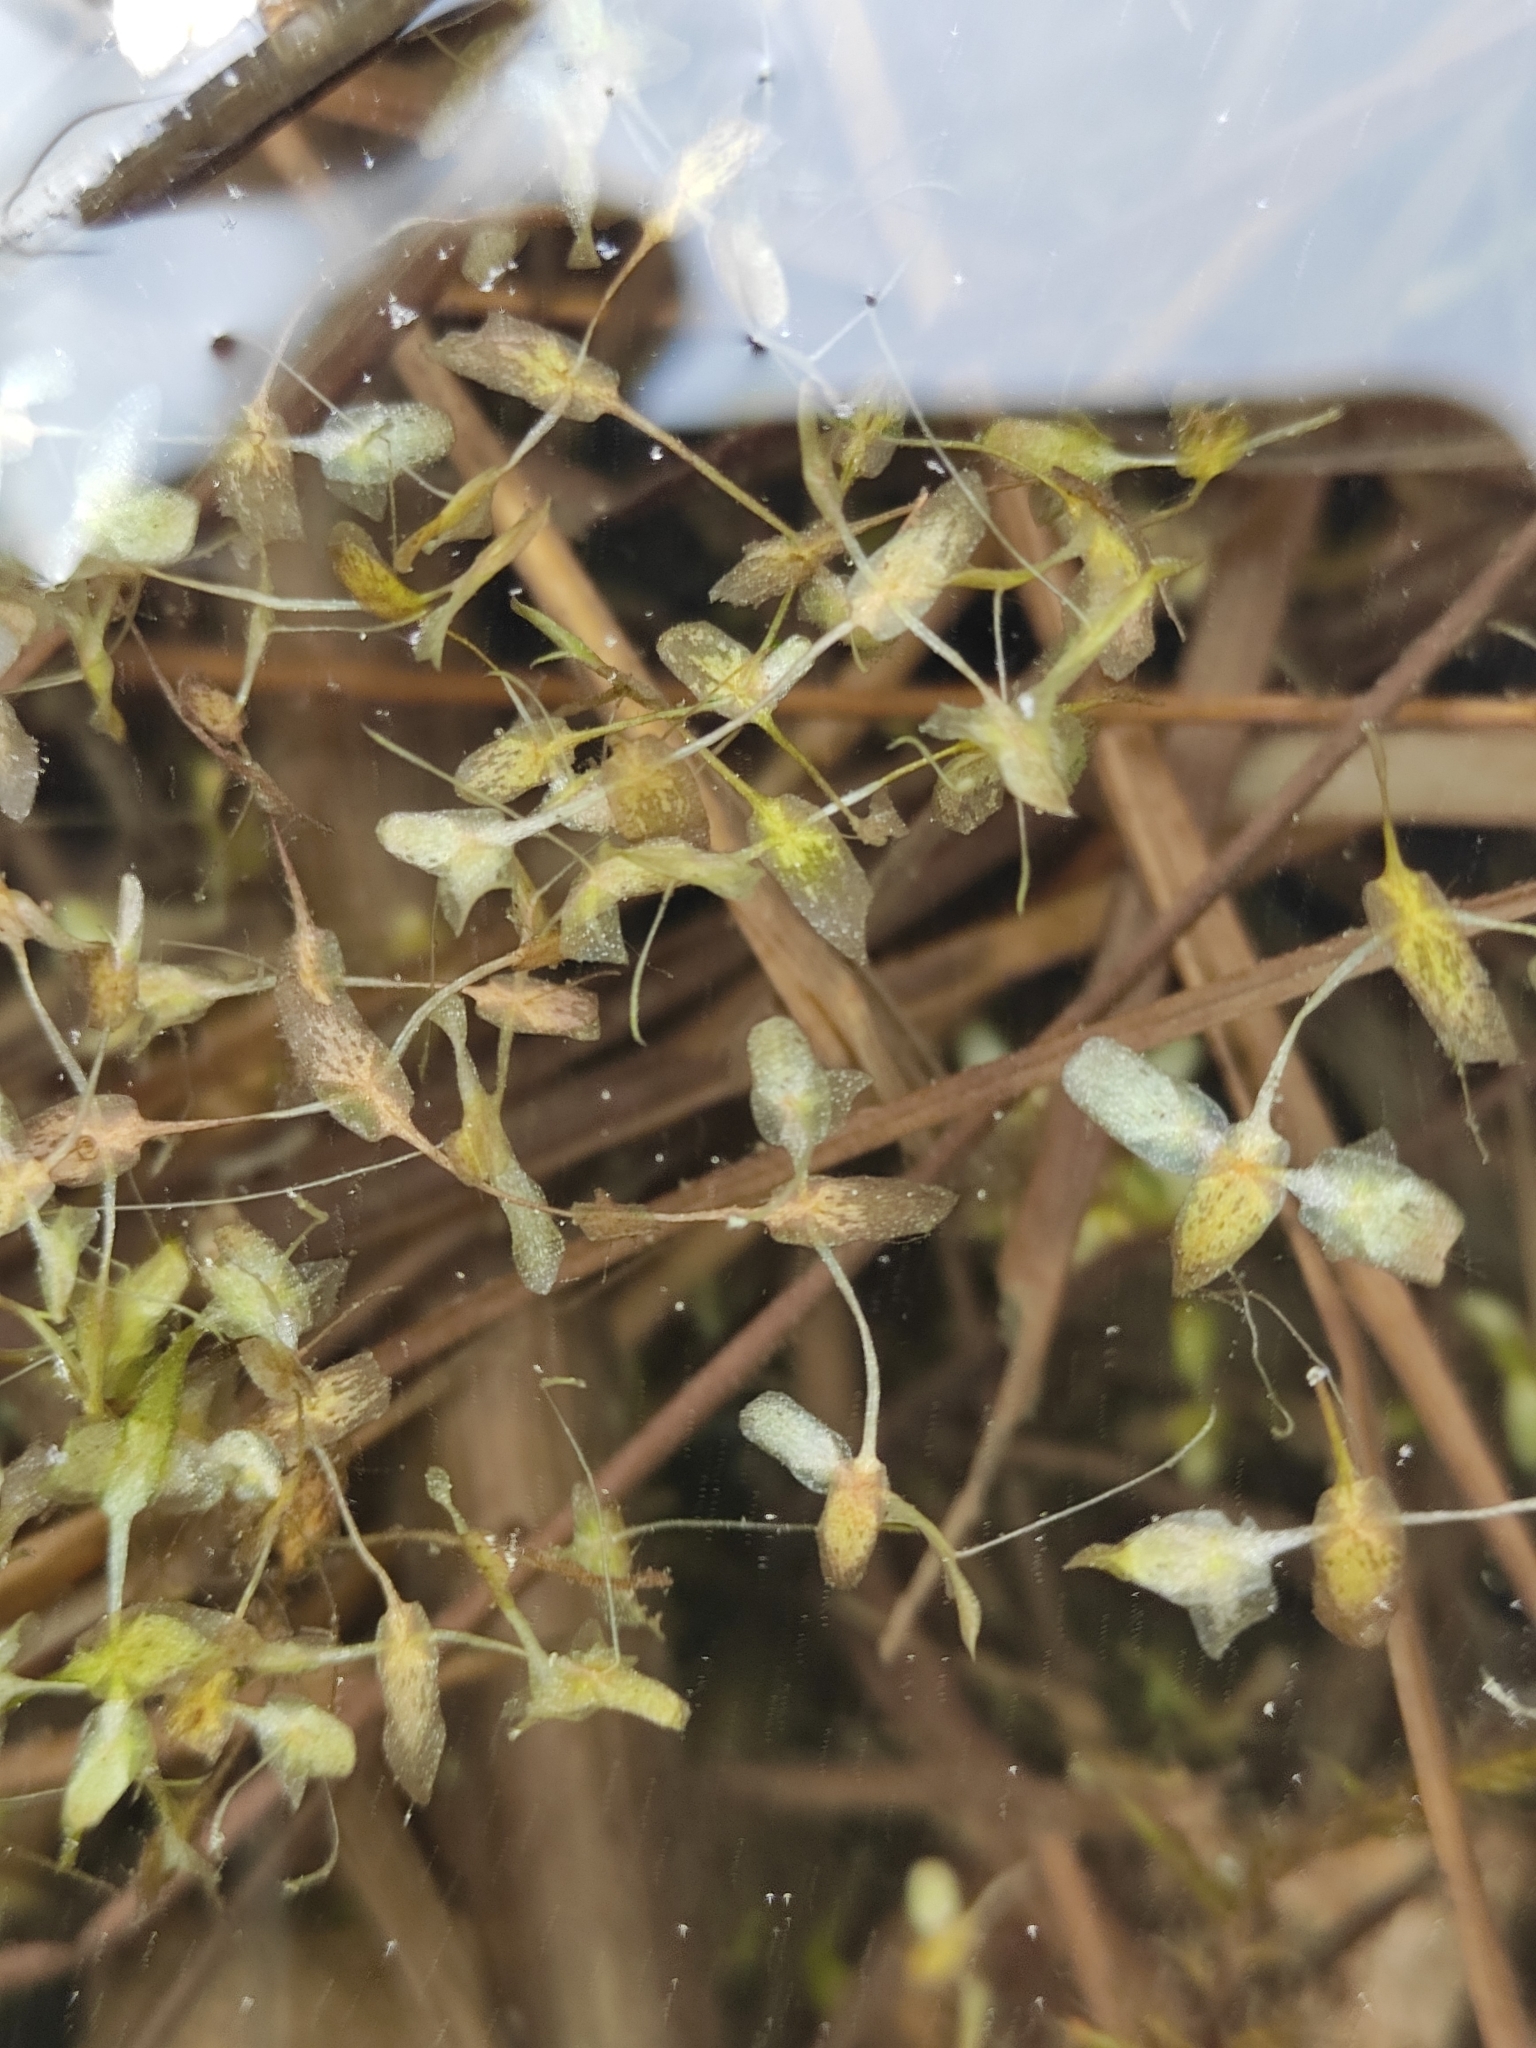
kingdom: Plantae
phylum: Tracheophyta
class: Liliopsida
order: Alismatales
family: Araceae
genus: Lemna
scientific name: Lemna trisulca
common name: Ivy-leaved duckweed
